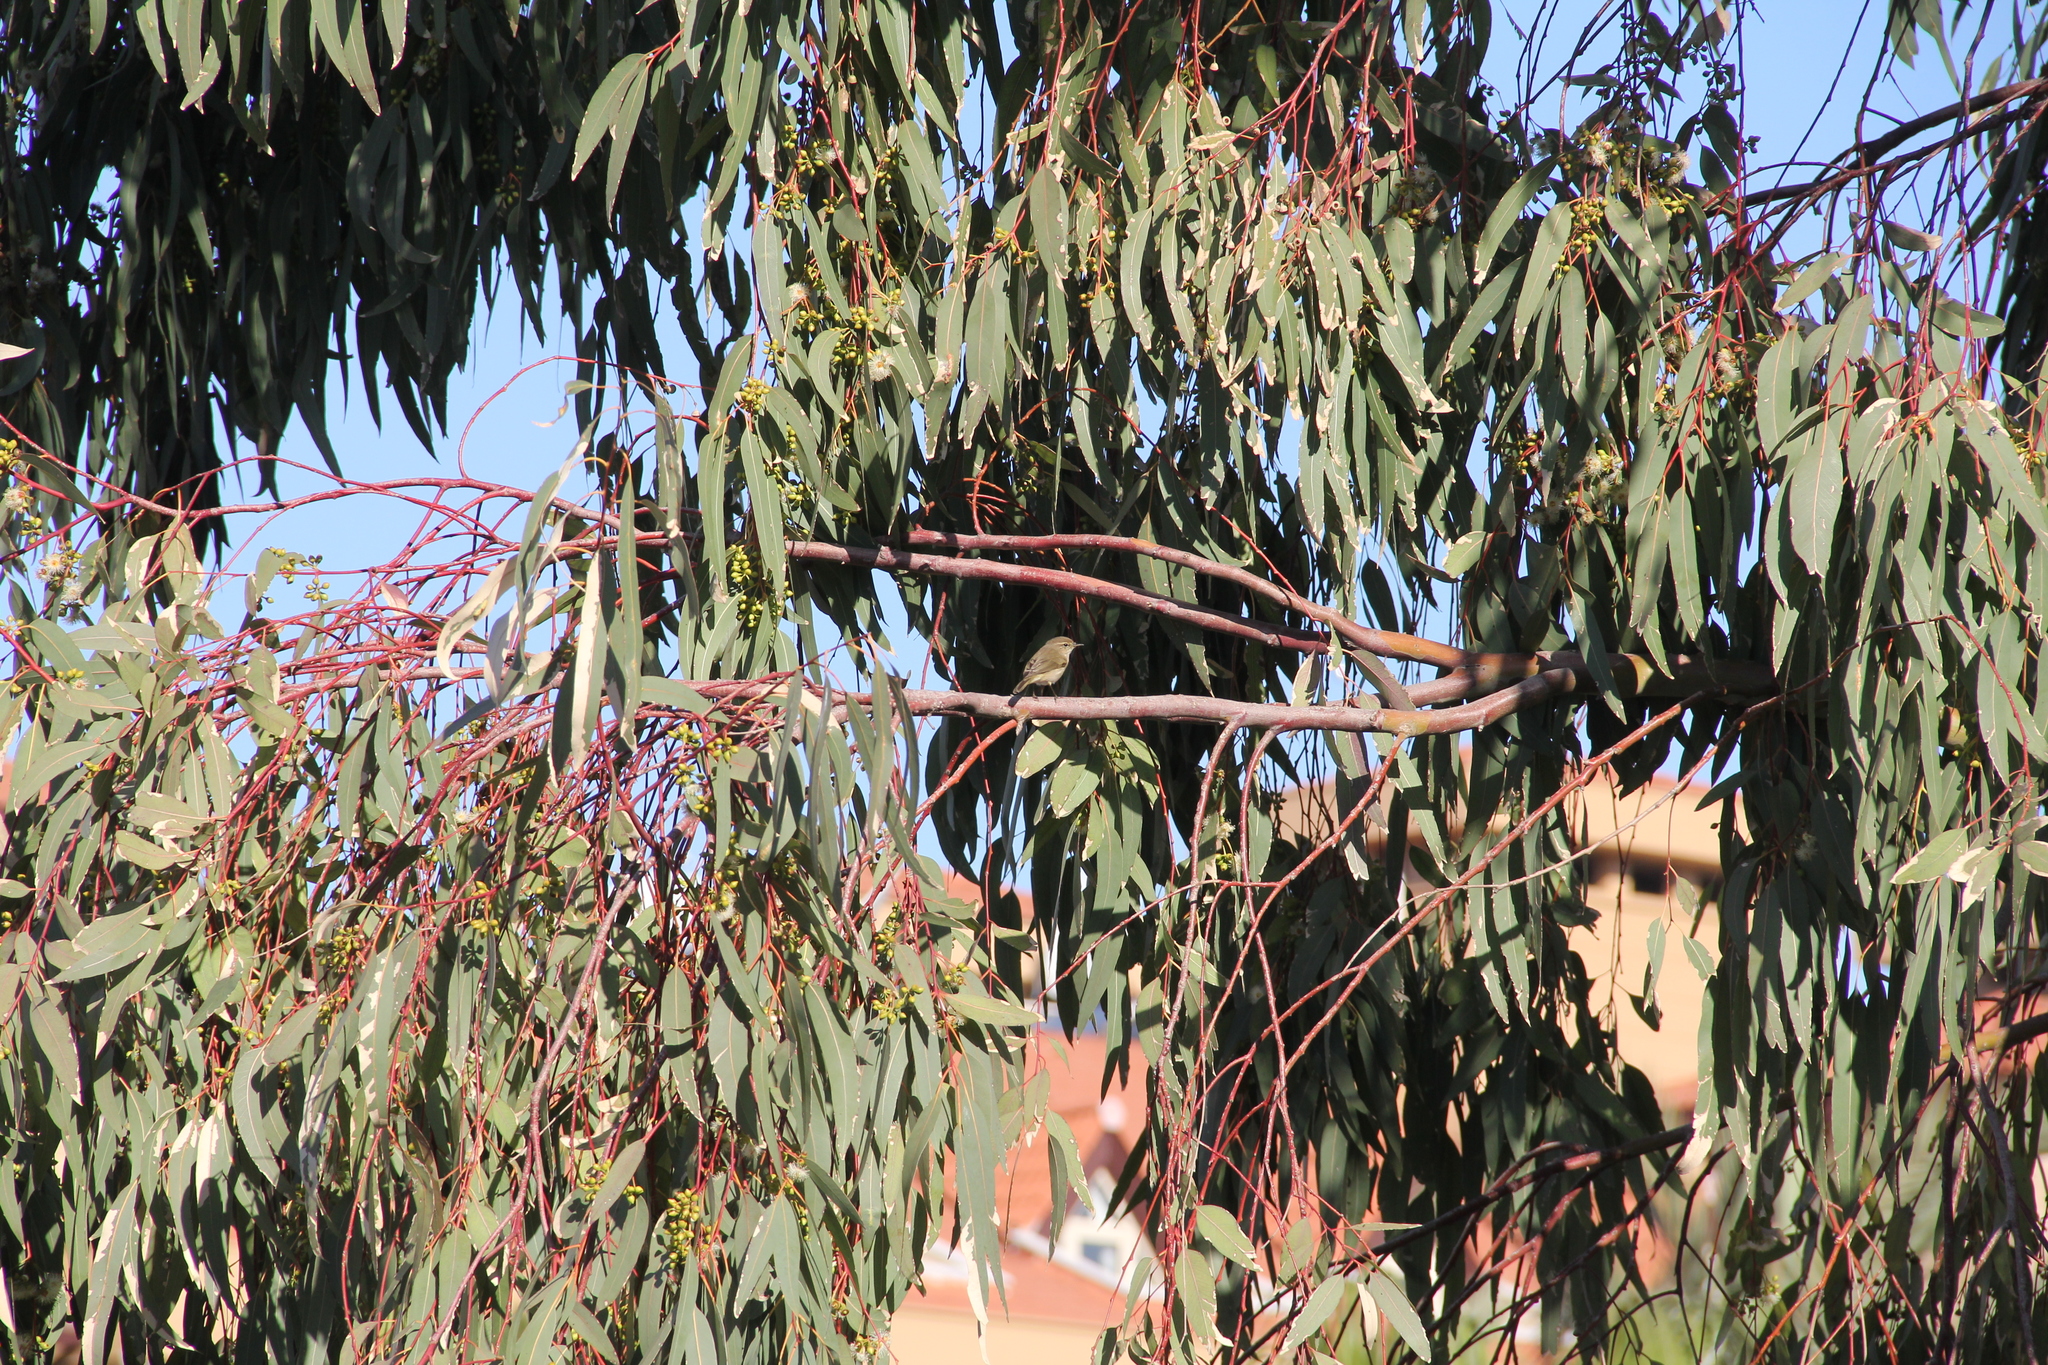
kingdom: Animalia
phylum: Chordata
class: Aves
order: Passeriformes
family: Phylloscopidae
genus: Phylloscopus
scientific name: Phylloscopus collybita
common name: Common chiffchaff
